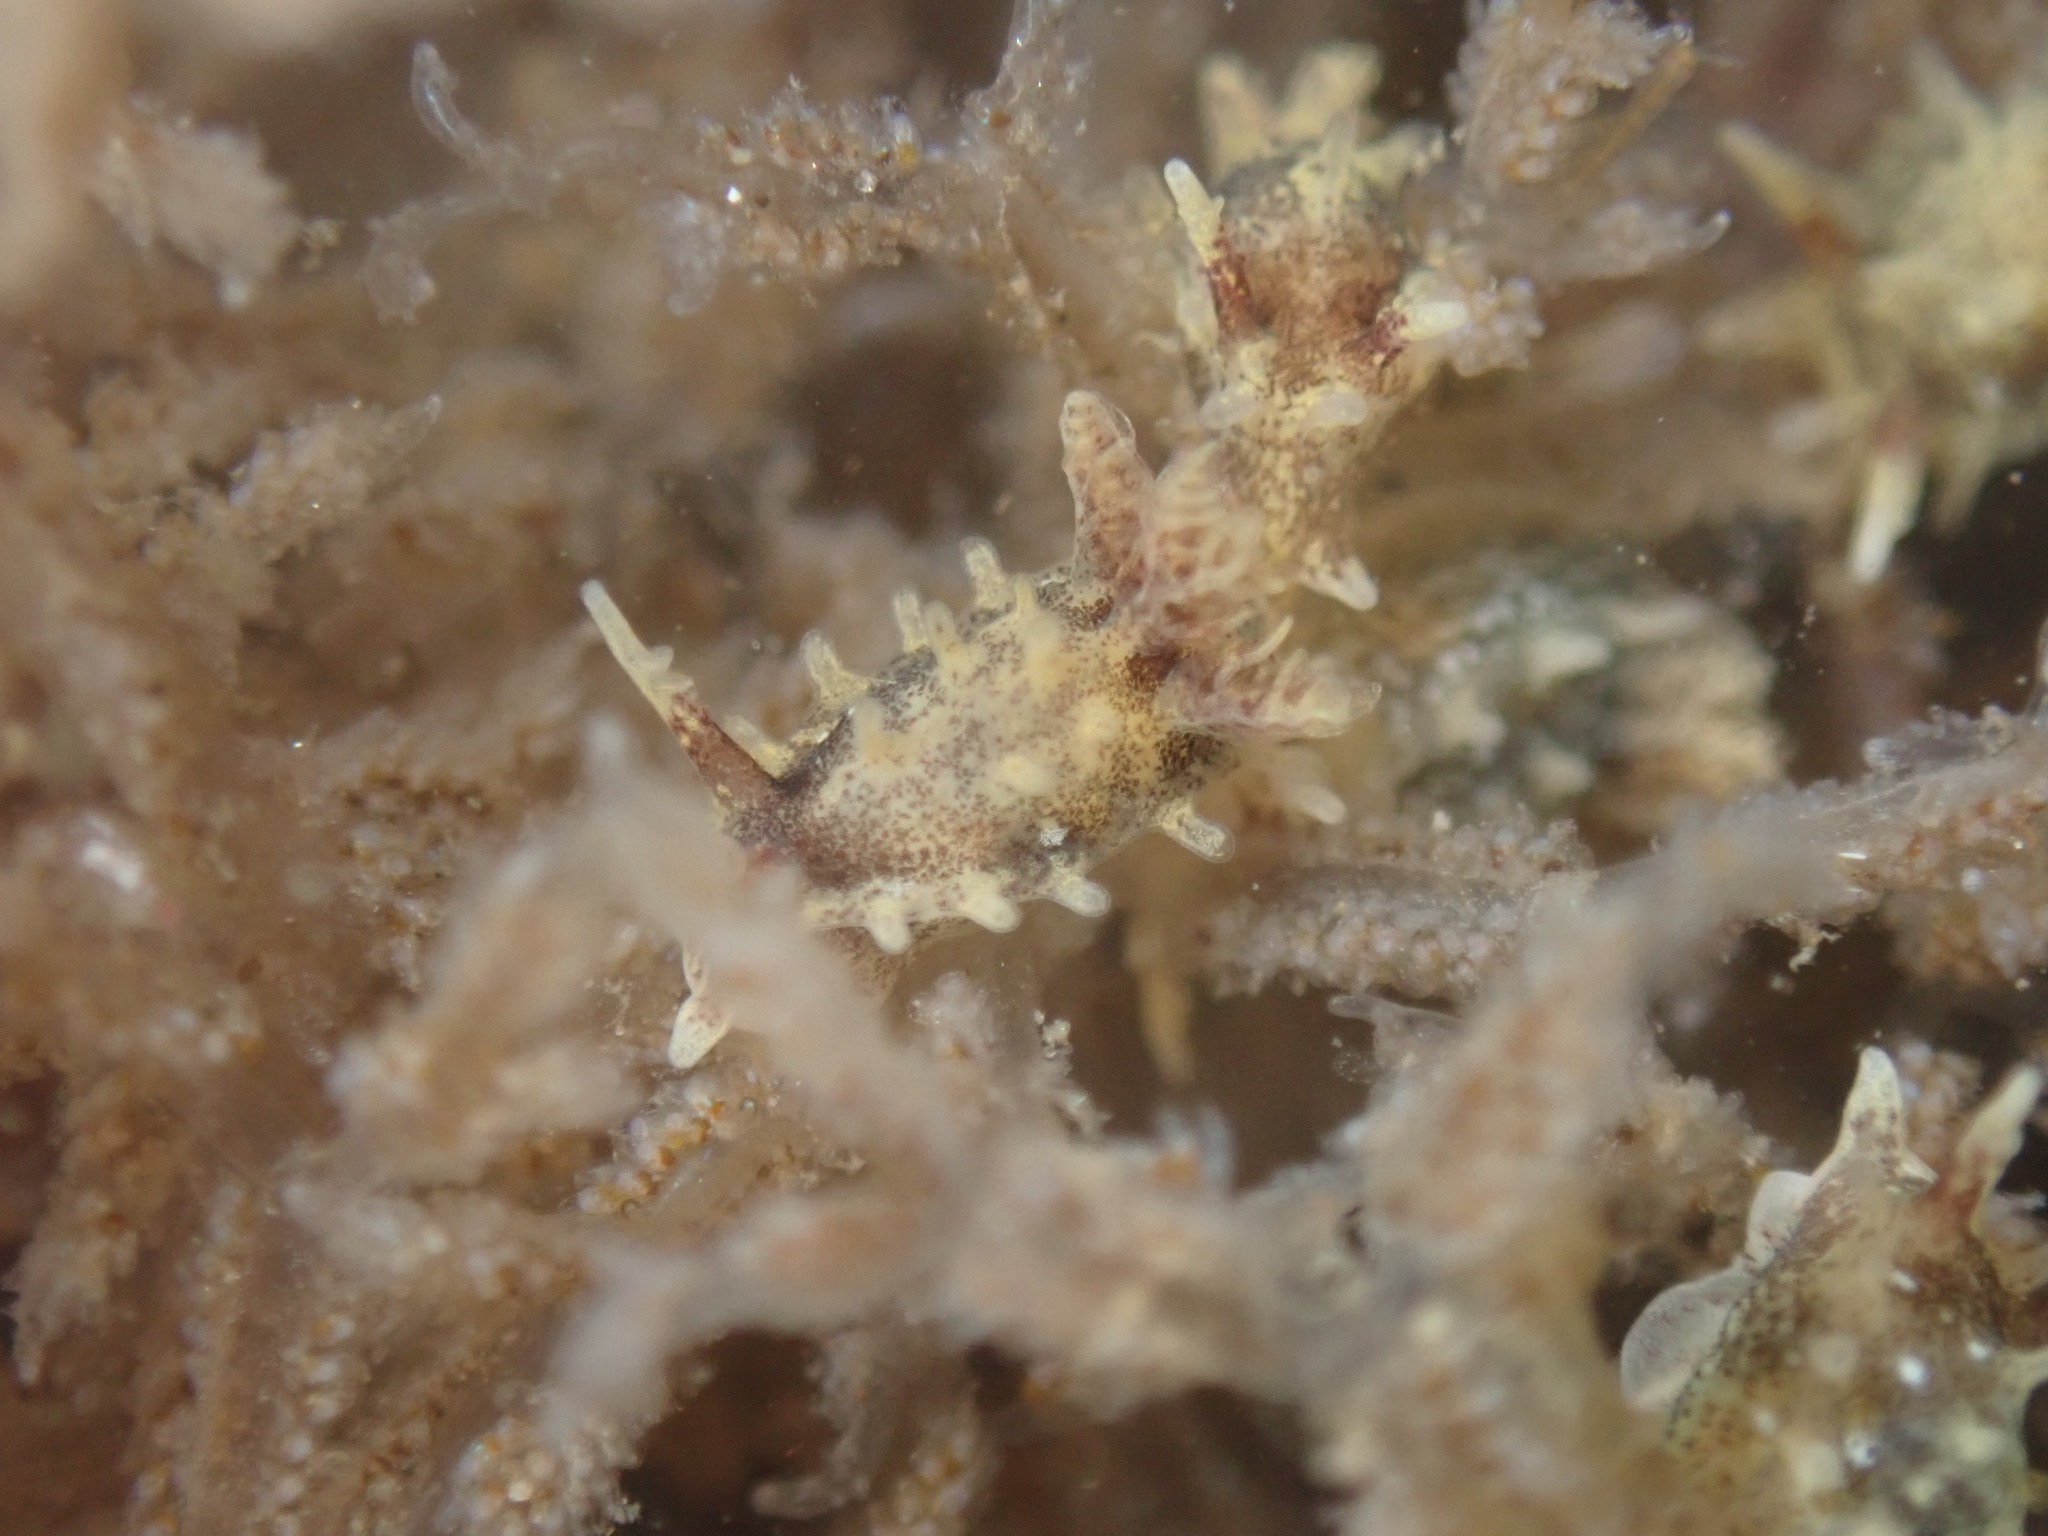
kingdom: Animalia
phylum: Mollusca
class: Gastropoda
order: Nudibranchia
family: Goniodorididae
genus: Okenia
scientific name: Okenia
